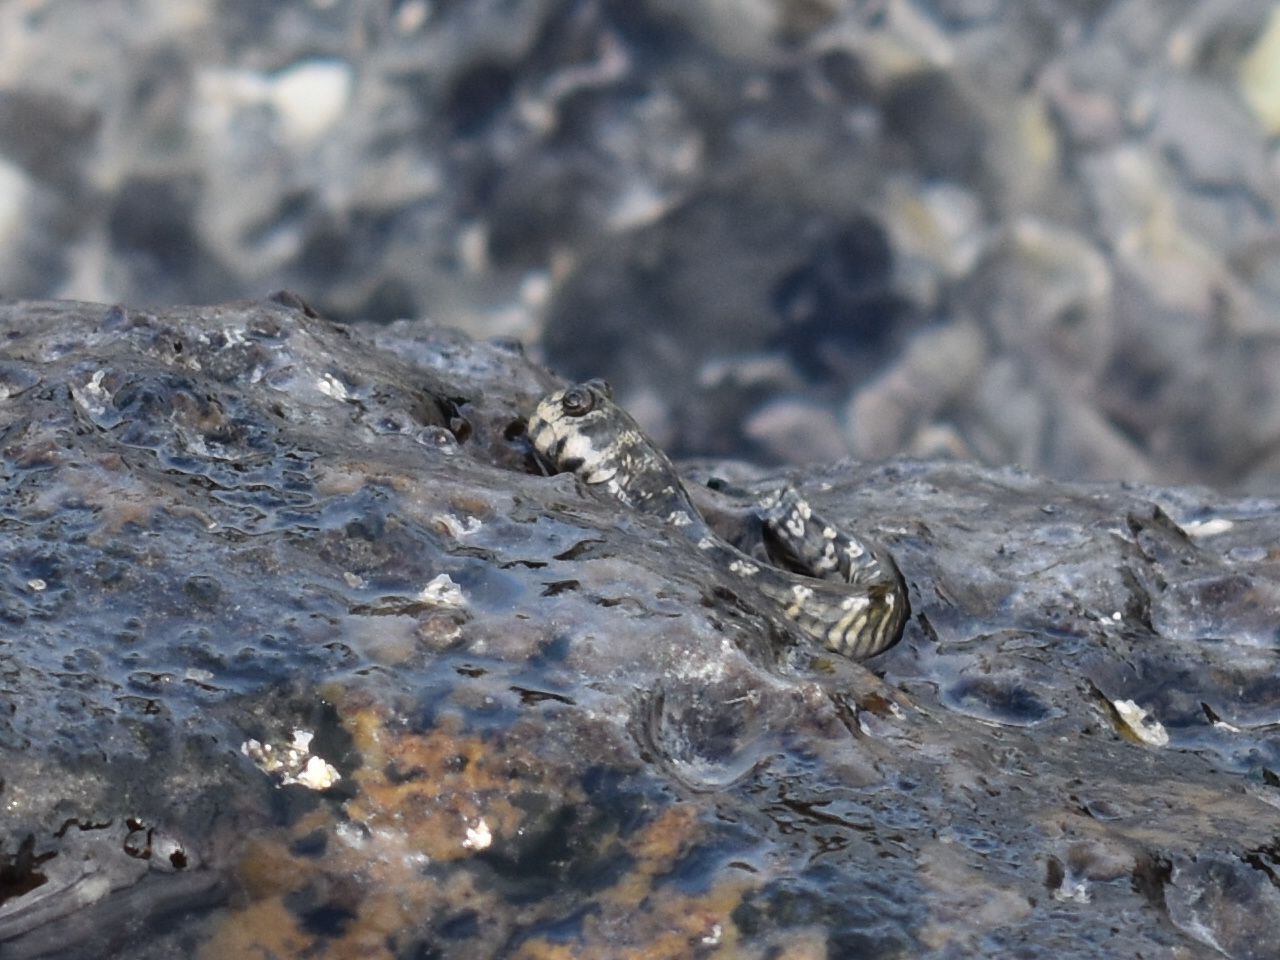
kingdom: Animalia
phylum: Chordata
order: Perciformes
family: Blenniidae
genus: Alticus
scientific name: Alticus monochrus
